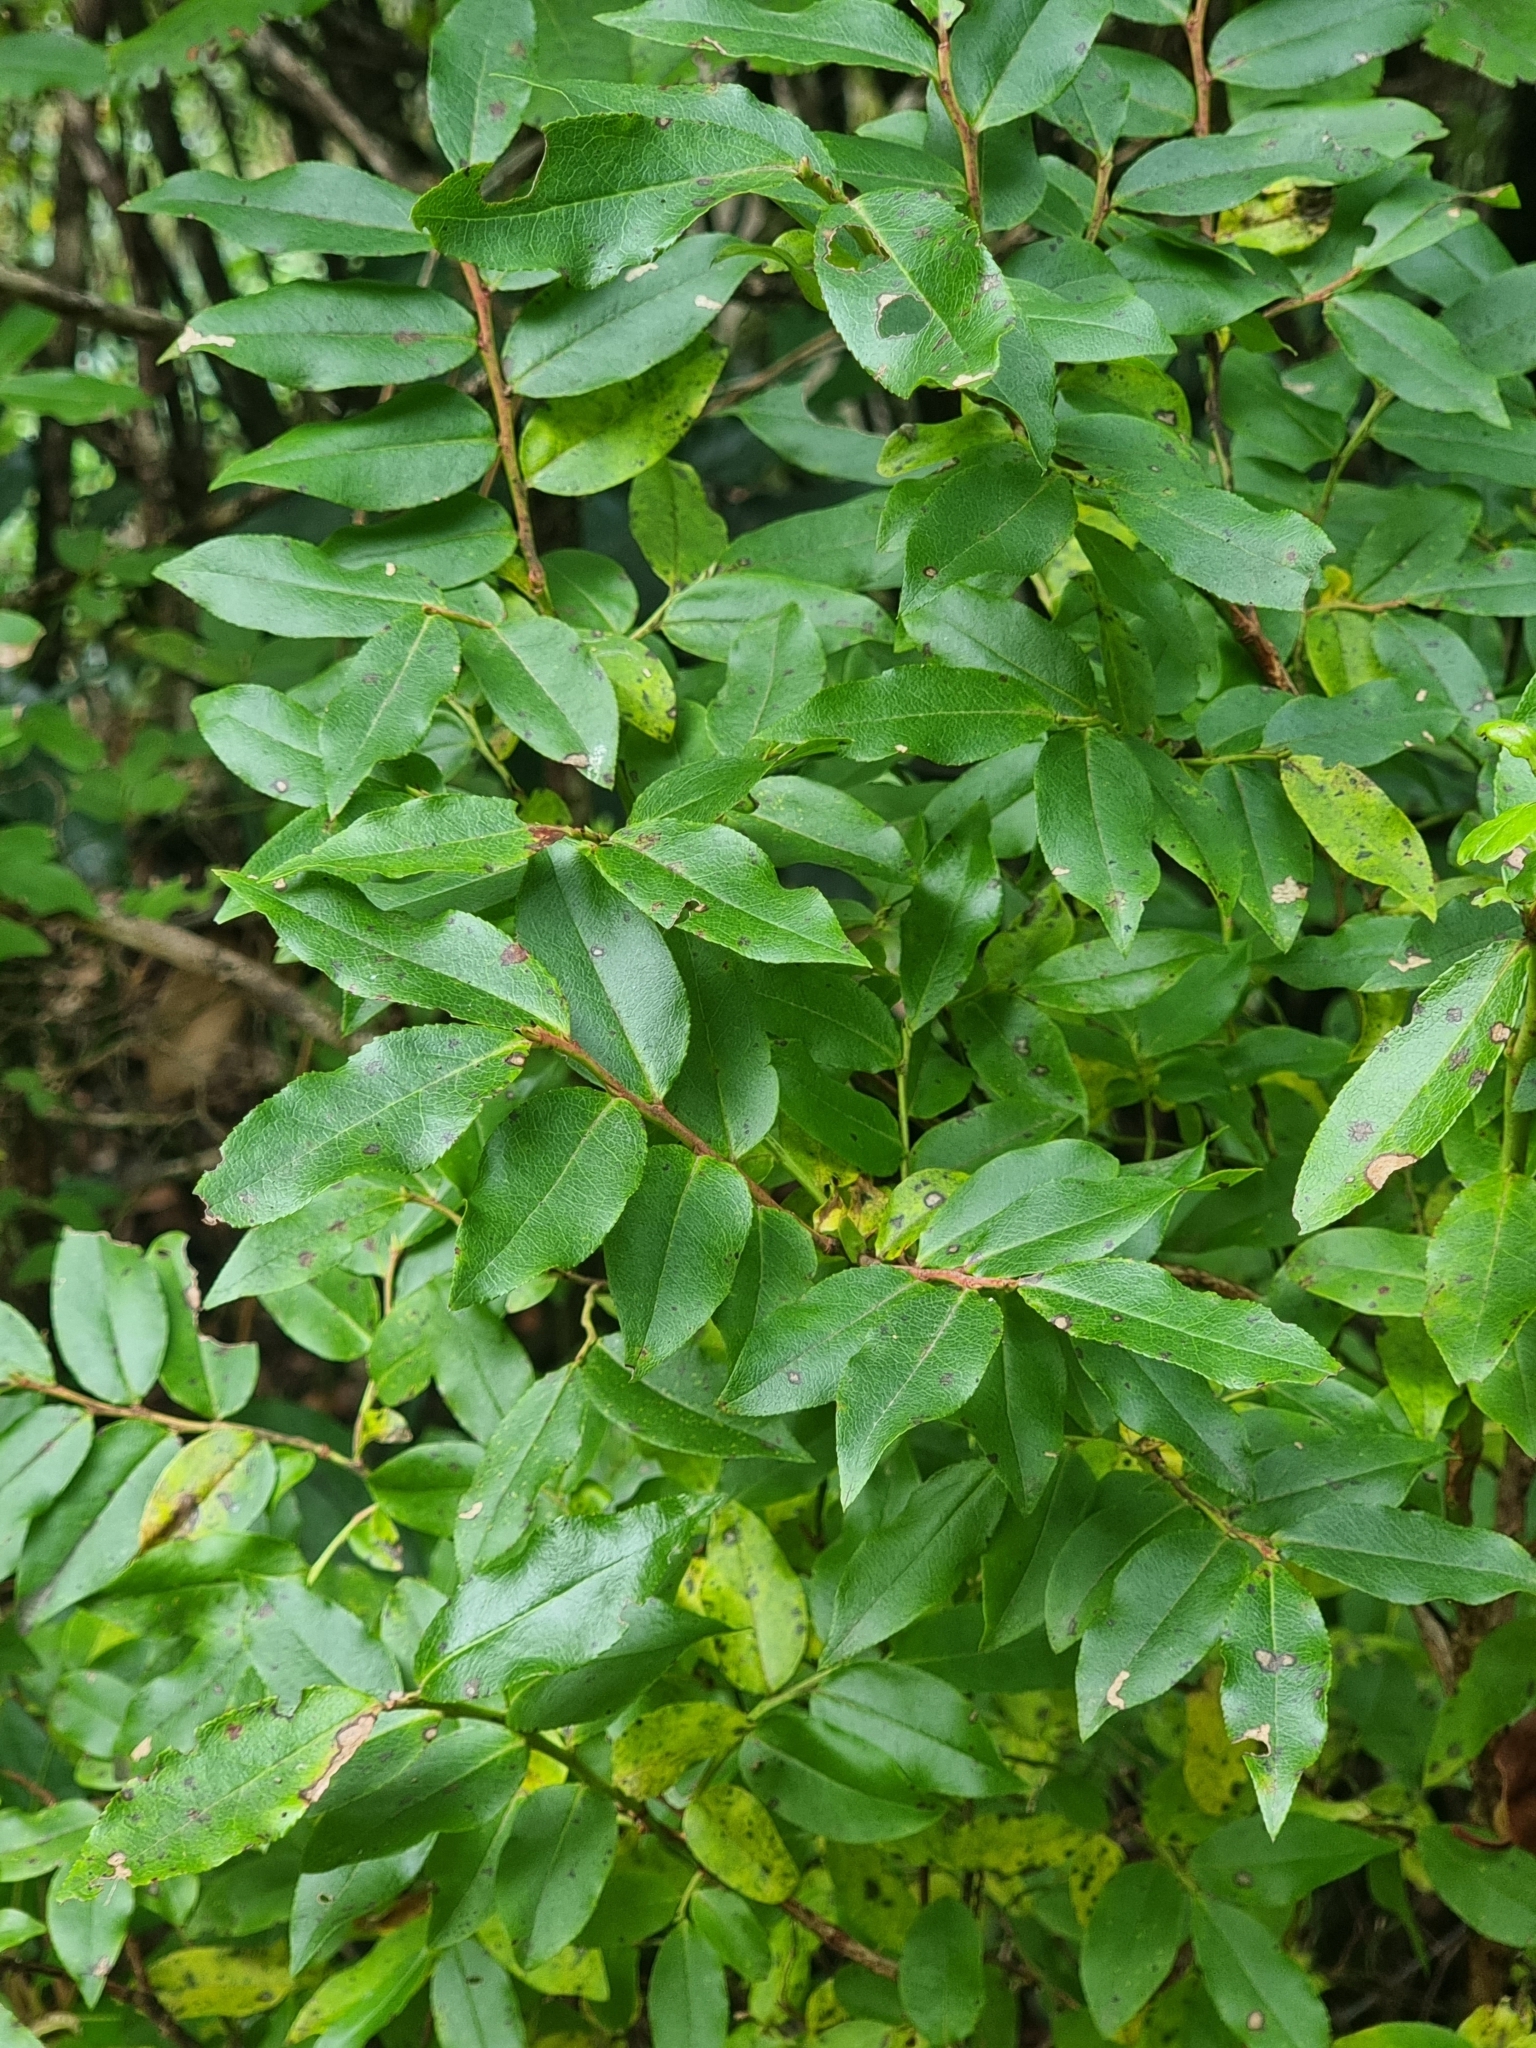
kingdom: Plantae
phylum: Tracheophyta
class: Magnoliopsida
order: Ericales
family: Ericaceae
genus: Vaccinium
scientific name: Vaccinium padifolium
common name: Madeiran blueberry
